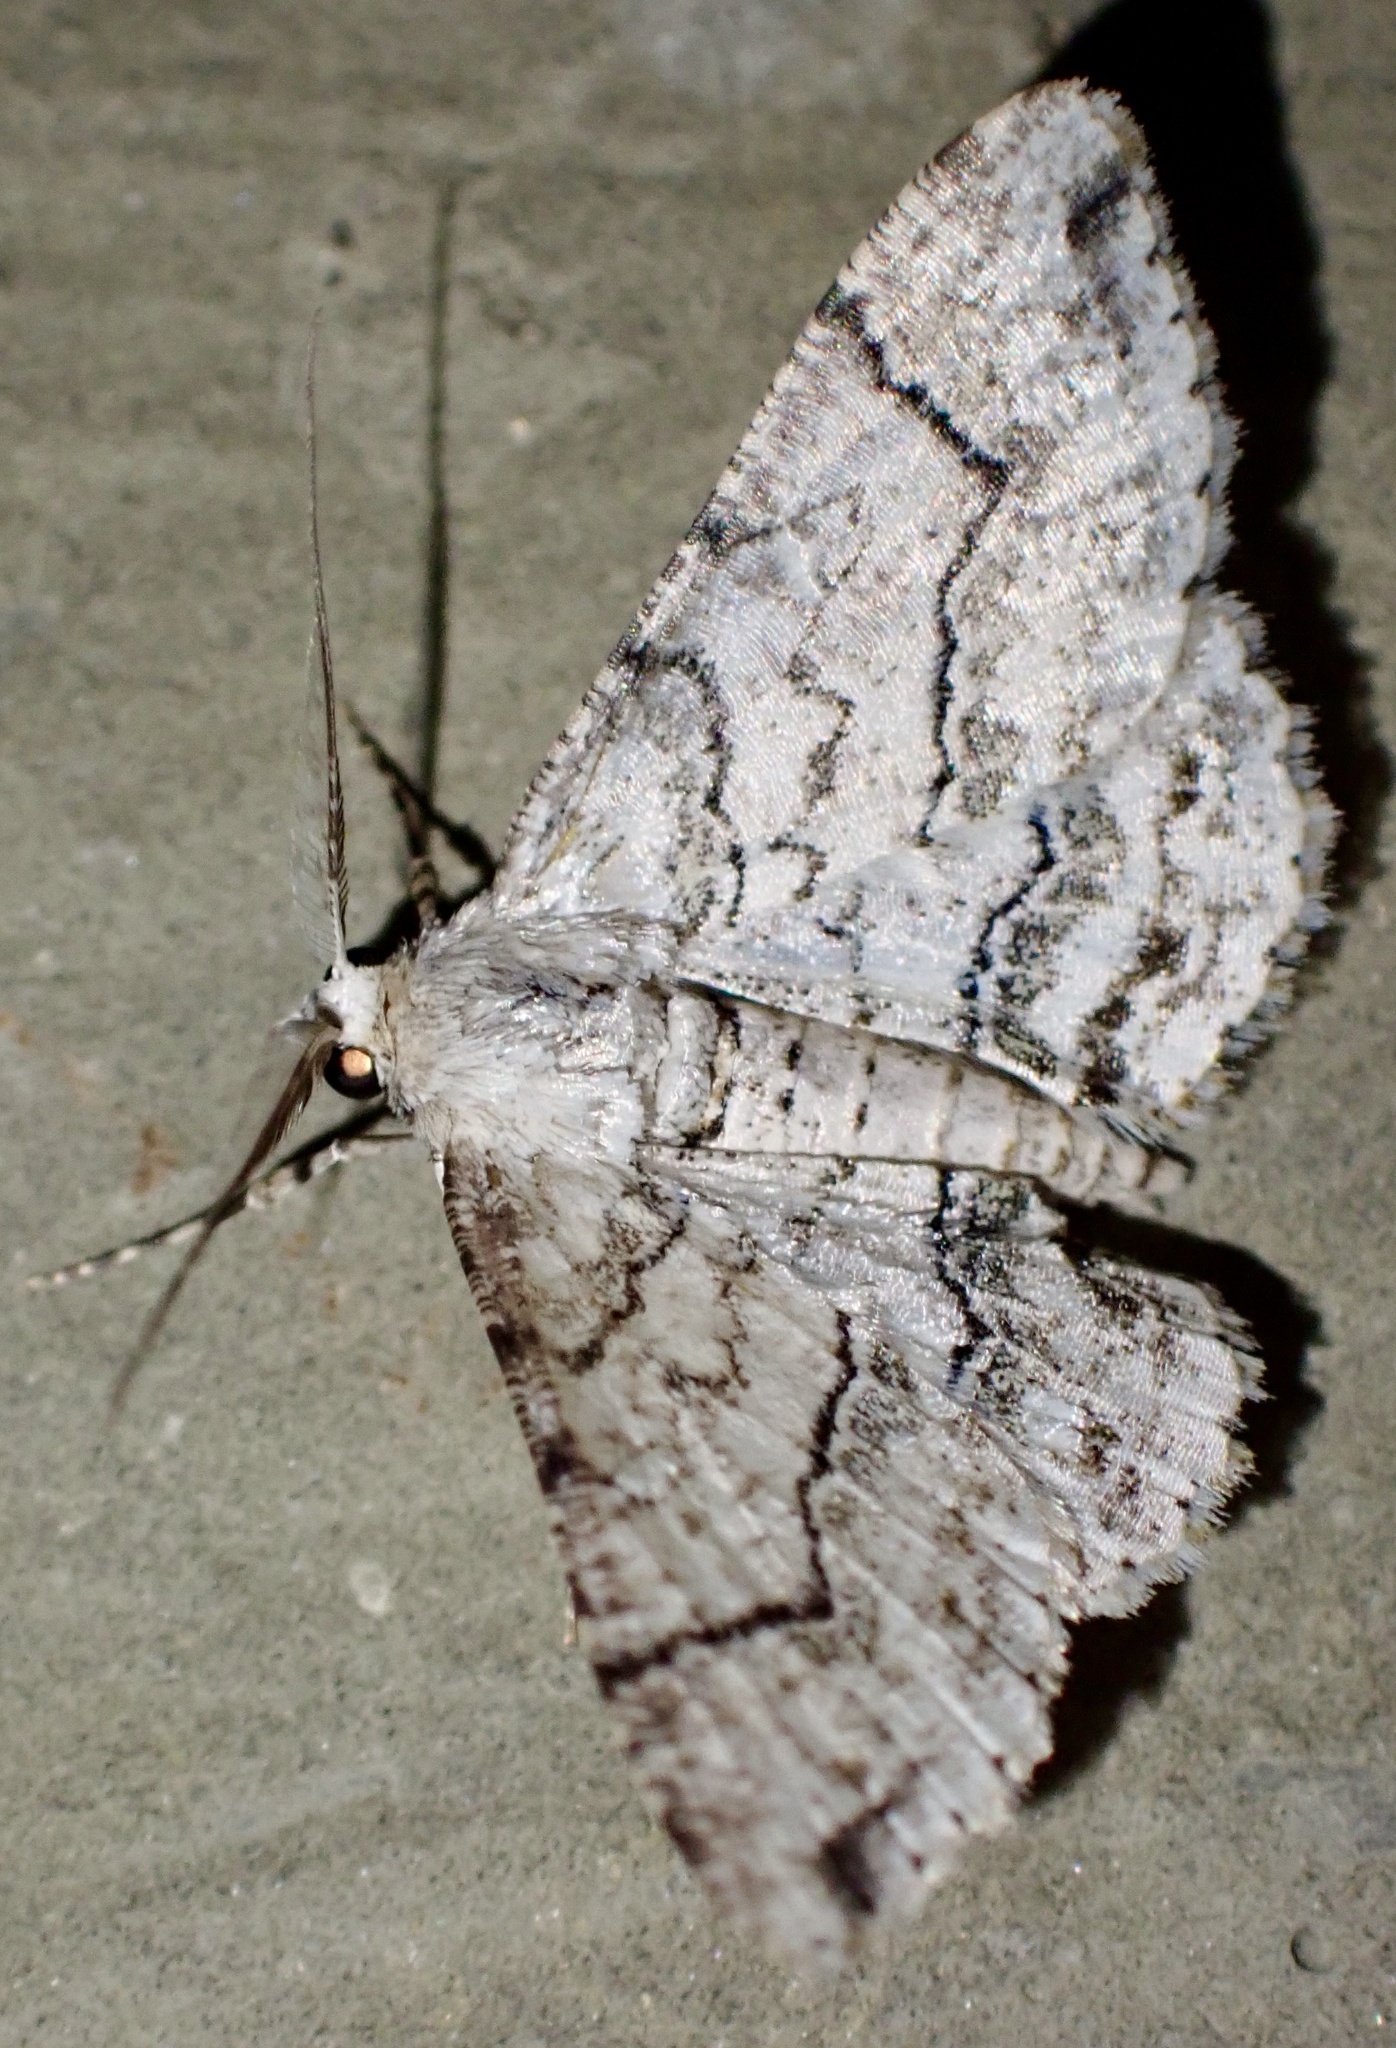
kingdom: Animalia
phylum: Arthropoda
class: Insecta
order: Lepidoptera
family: Geometridae
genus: Cleora
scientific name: Cleora compectinata
